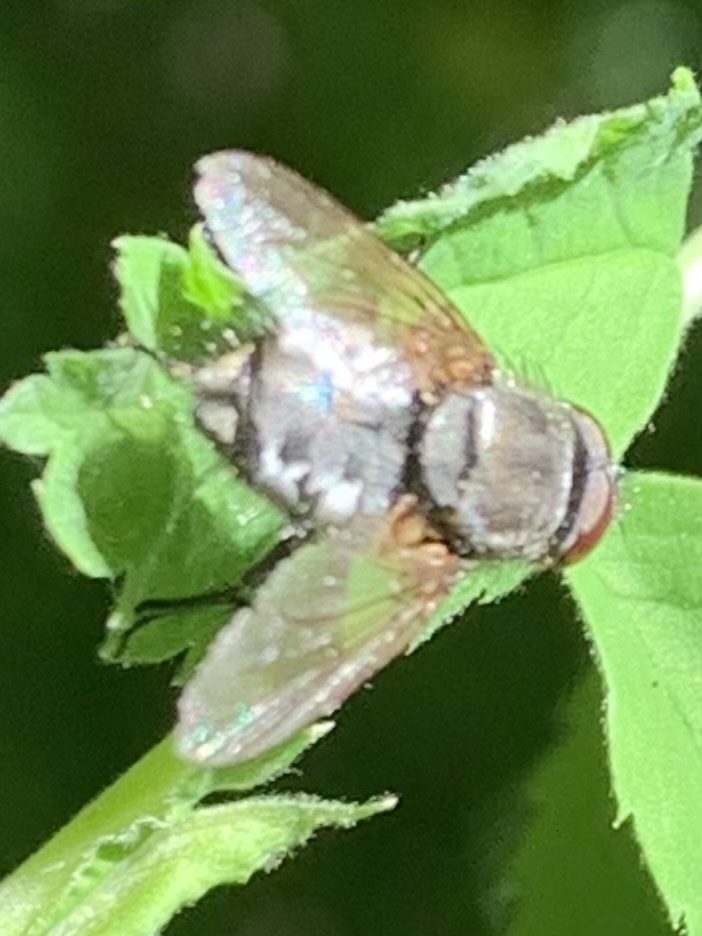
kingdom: Animalia
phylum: Arthropoda
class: Insecta
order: Diptera
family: Polleniidae
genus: Pollenia
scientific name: Pollenia
